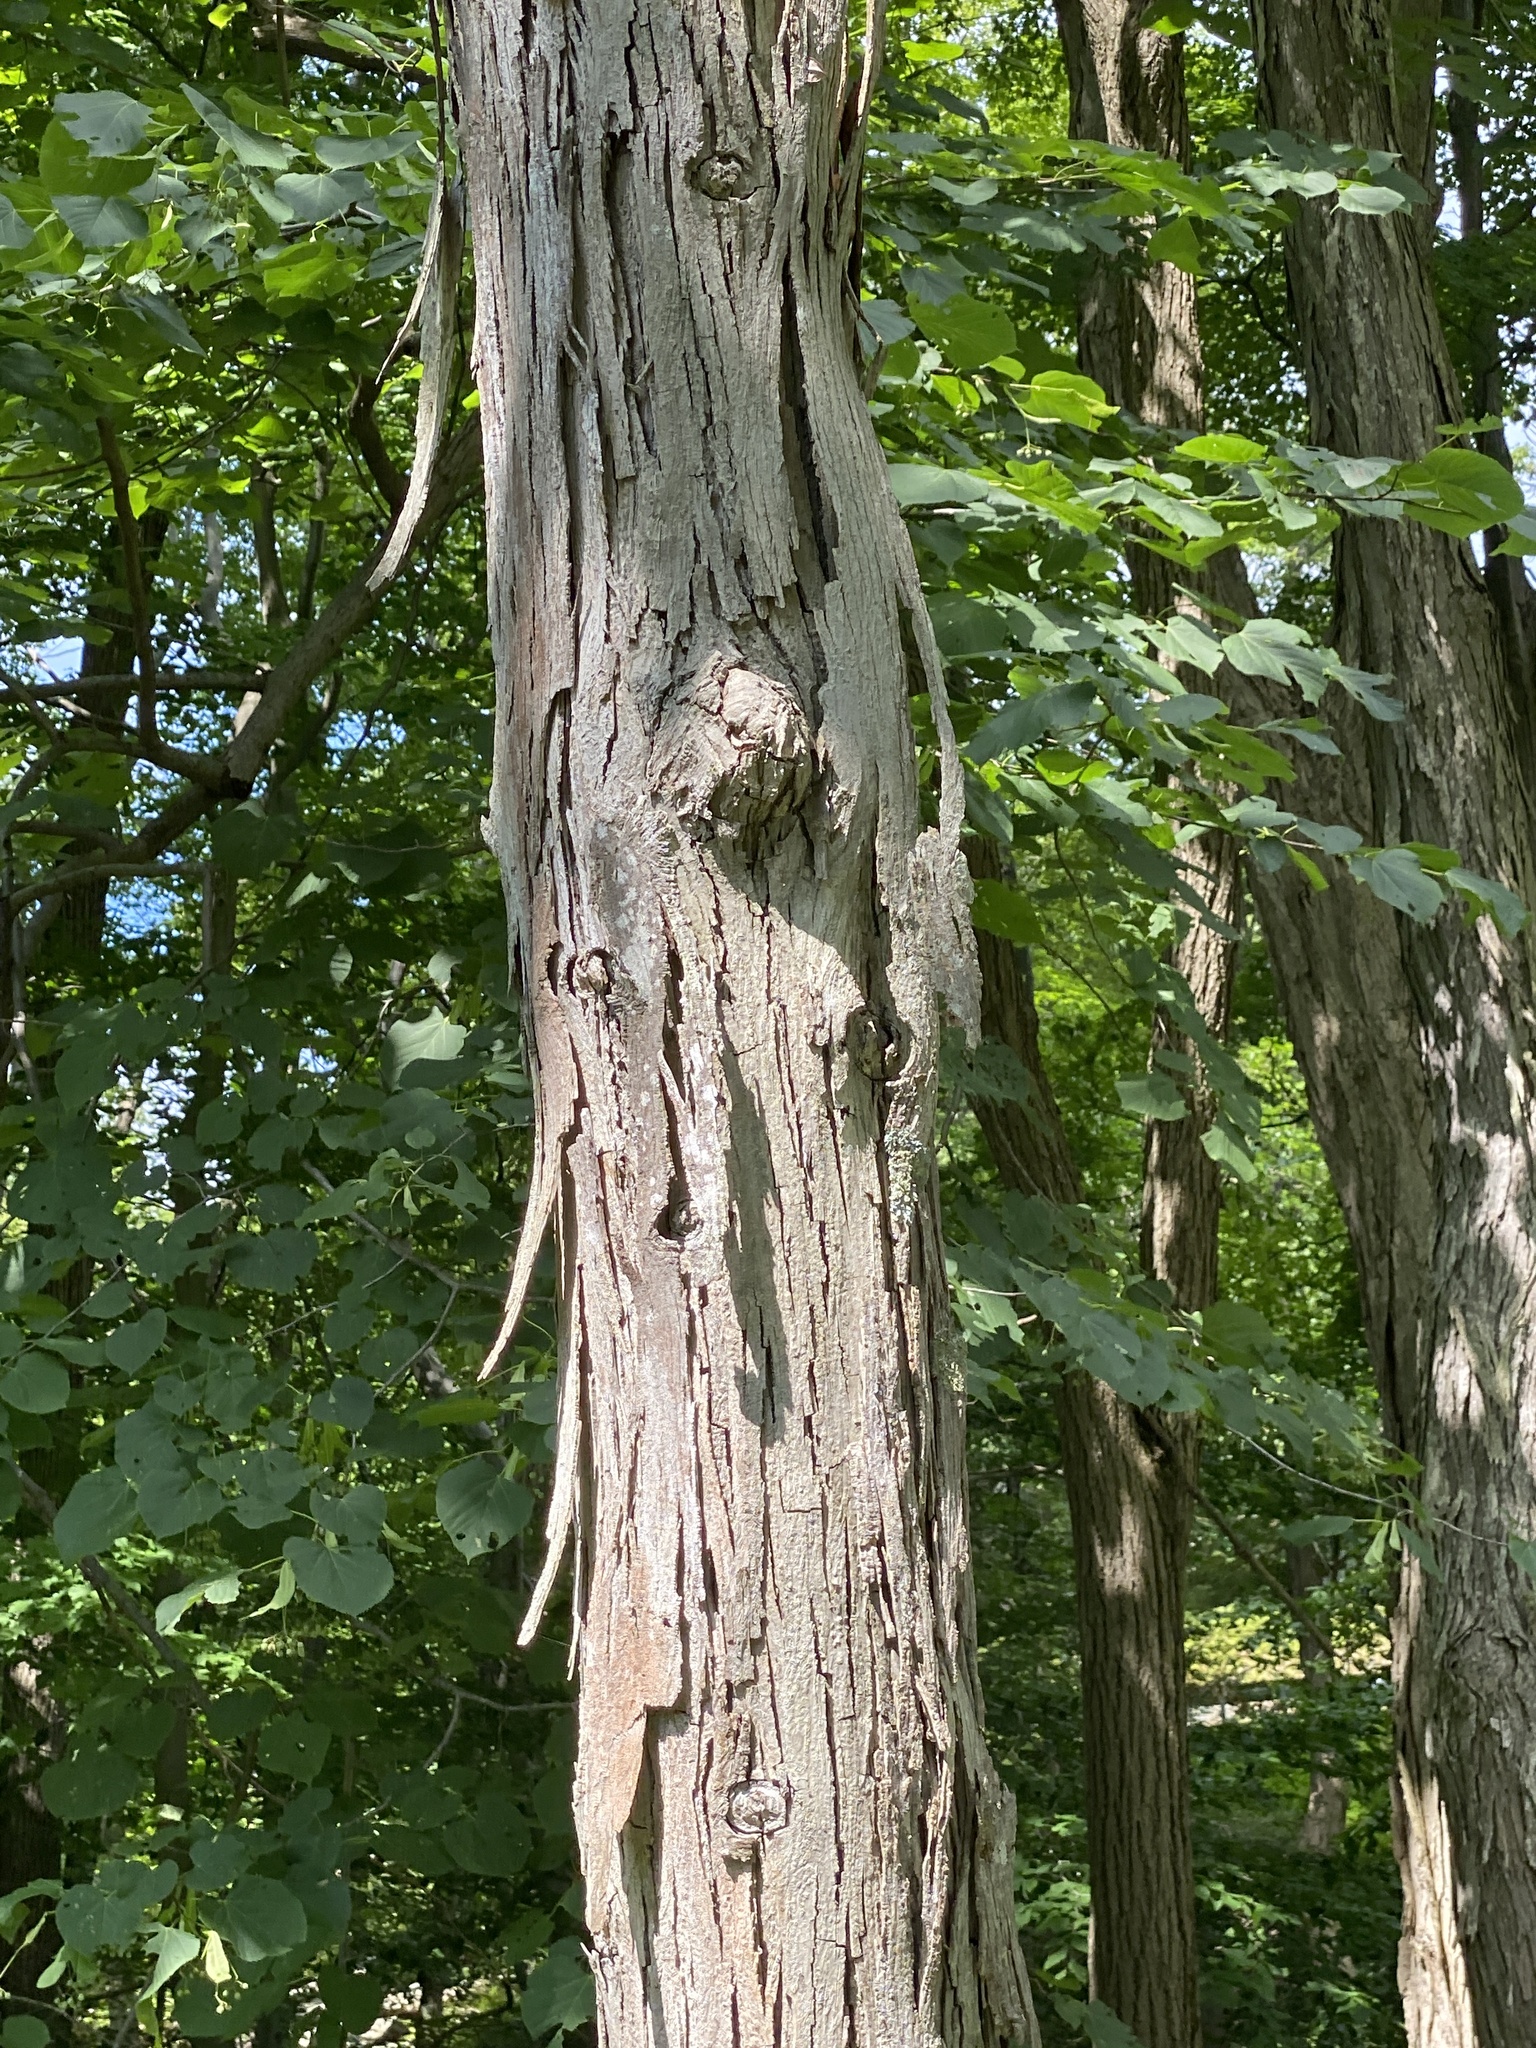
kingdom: Plantae
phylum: Tracheophyta
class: Magnoliopsida
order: Fagales
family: Juglandaceae
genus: Carya
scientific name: Carya ovata
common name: Shagbark hickory
